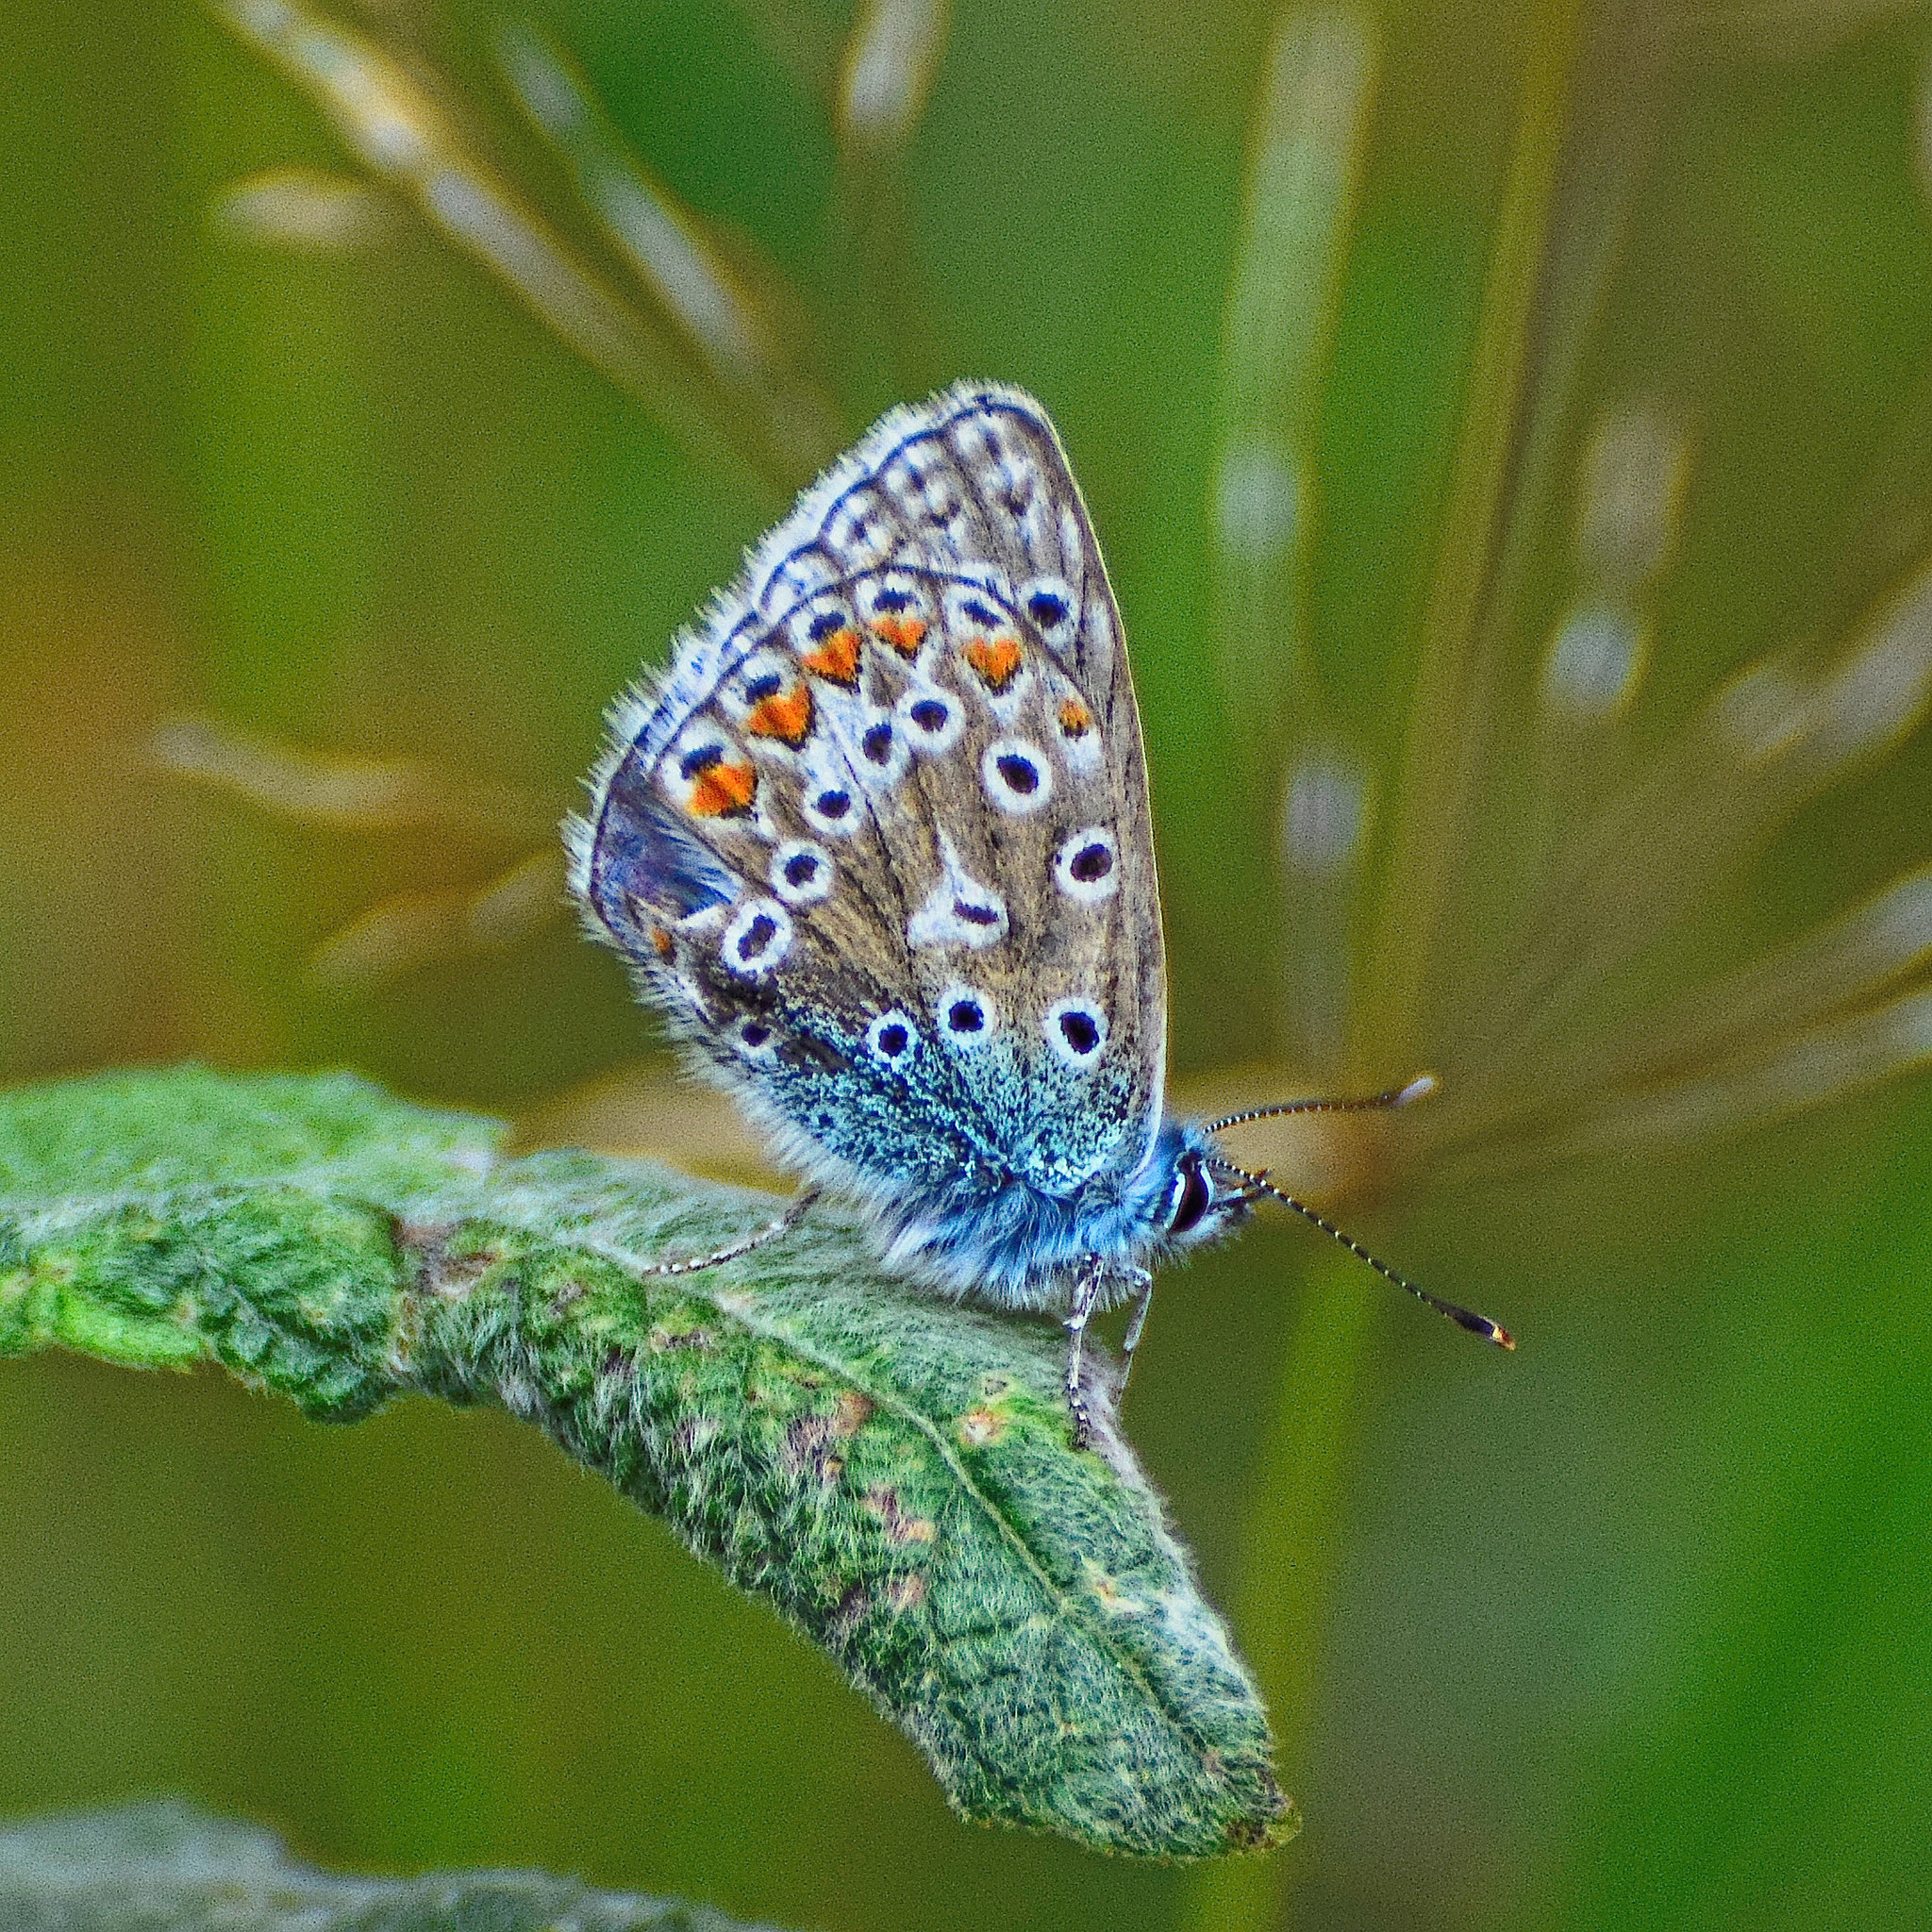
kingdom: Animalia
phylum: Arthropoda
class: Insecta
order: Lepidoptera
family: Lycaenidae
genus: Polyommatus
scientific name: Polyommatus icarus
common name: Common blue
